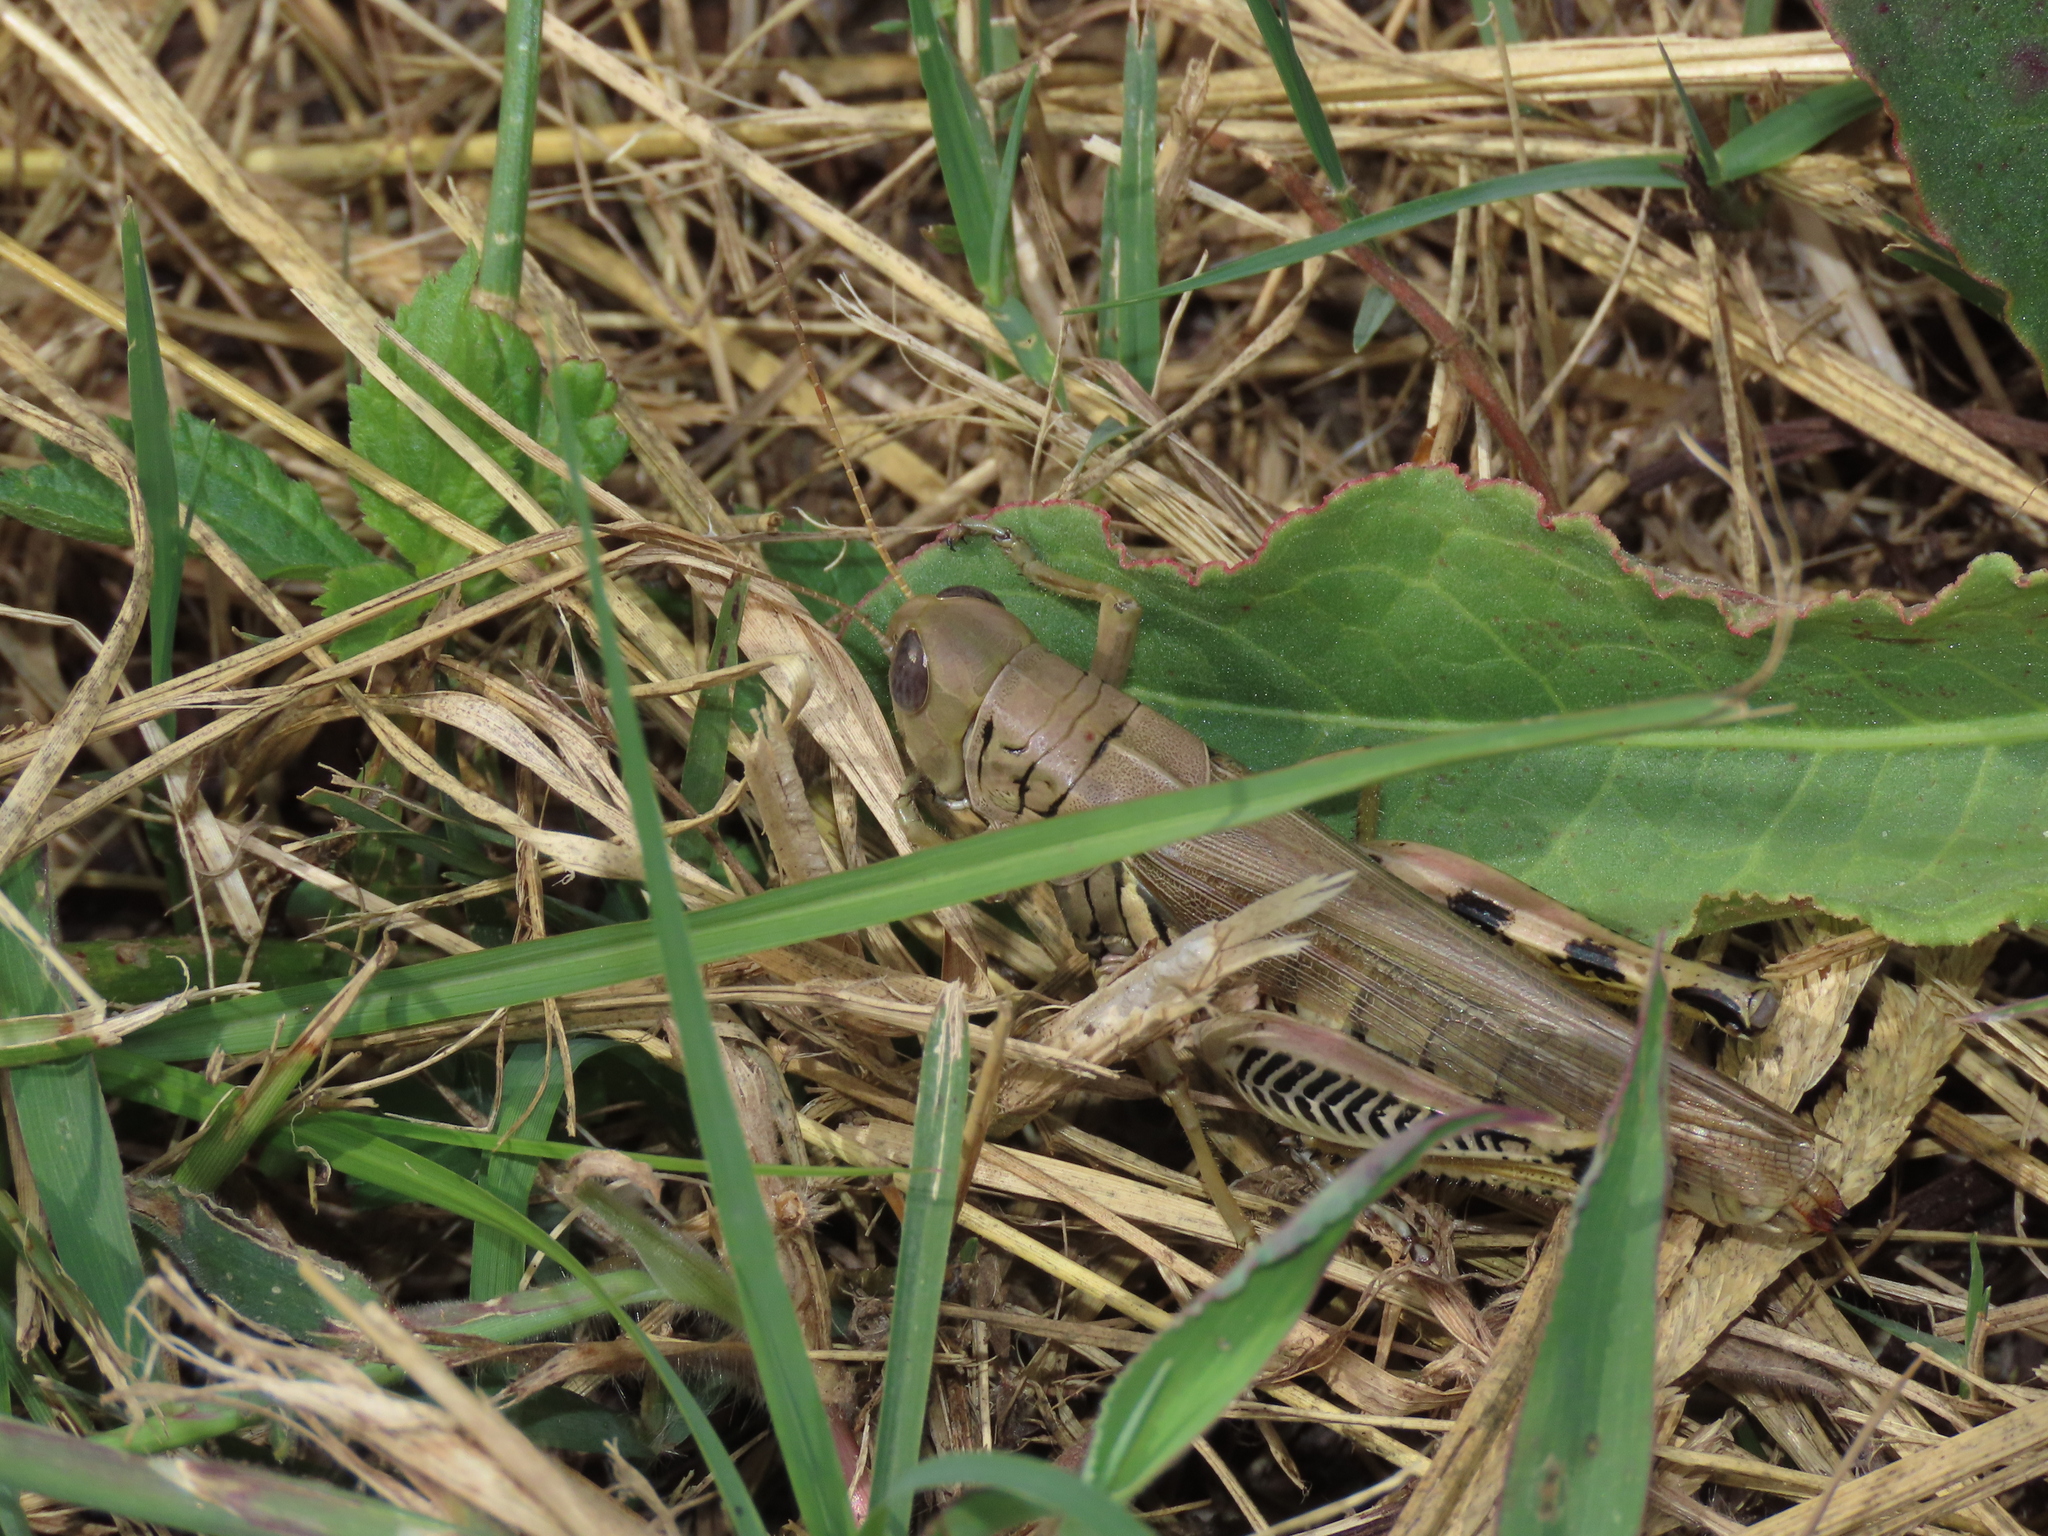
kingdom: Animalia
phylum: Arthropoda
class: Insecta
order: Orthoptera
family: Acrididae
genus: Melanoplus
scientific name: Melanoplus differentialis
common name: Differential grasshopper
